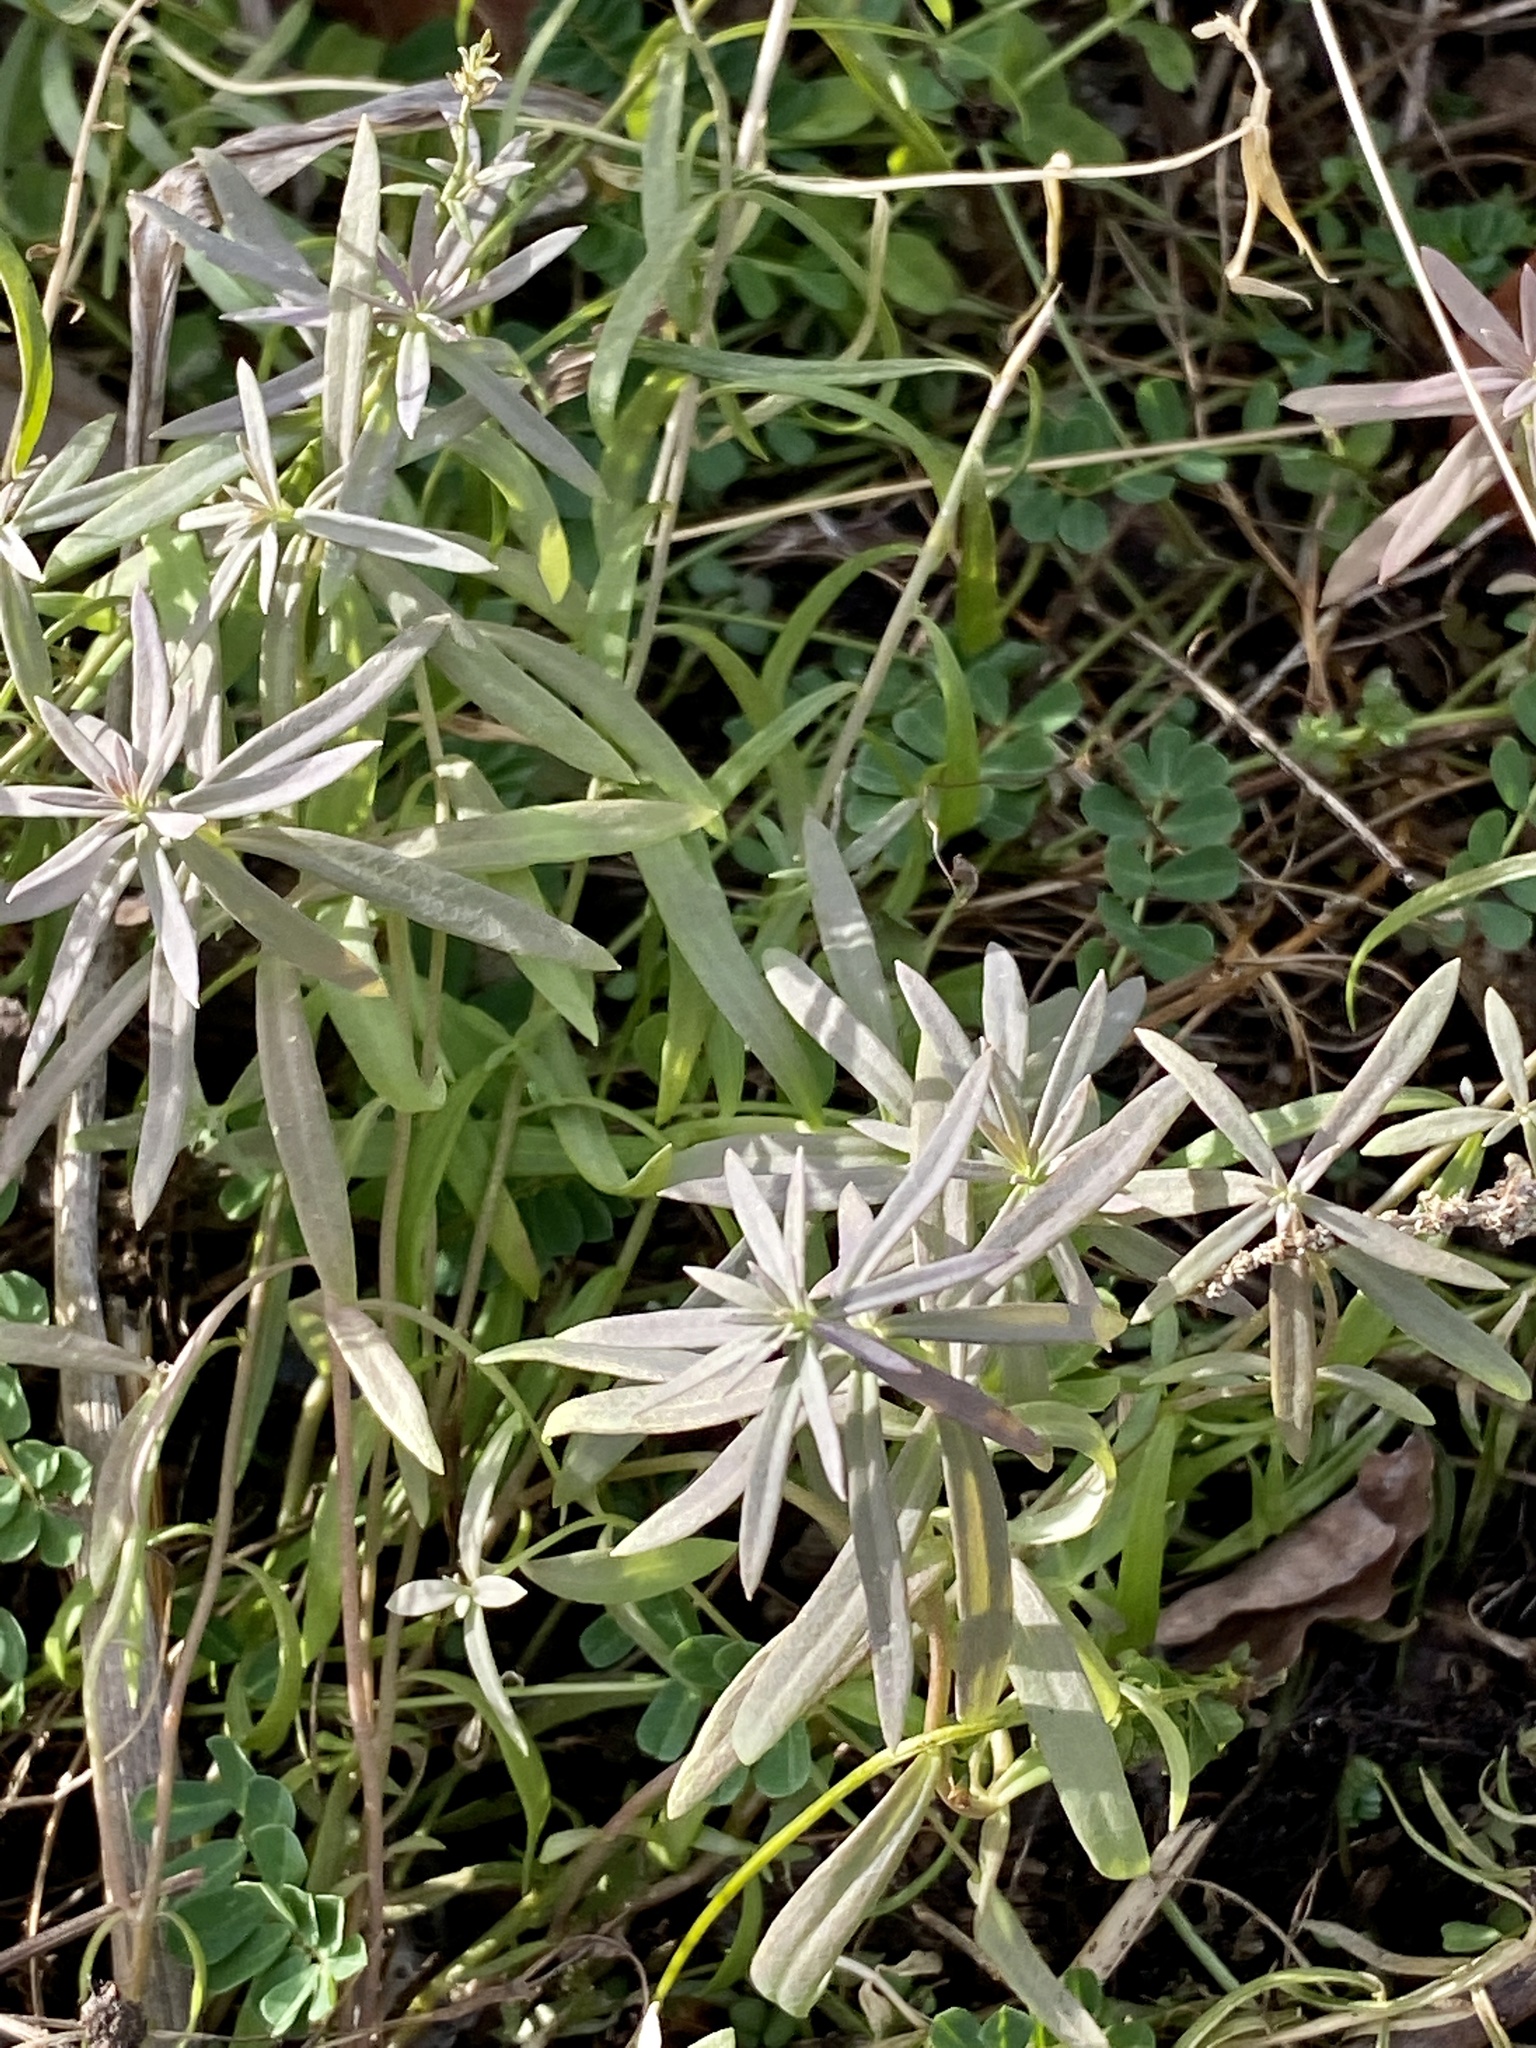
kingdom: Plantae
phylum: Tracheophyta
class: Magnoliopsida
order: Lamiales
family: Plantaginaceae
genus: Linaria
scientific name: Linaria vulgaris
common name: Butter and eggs
